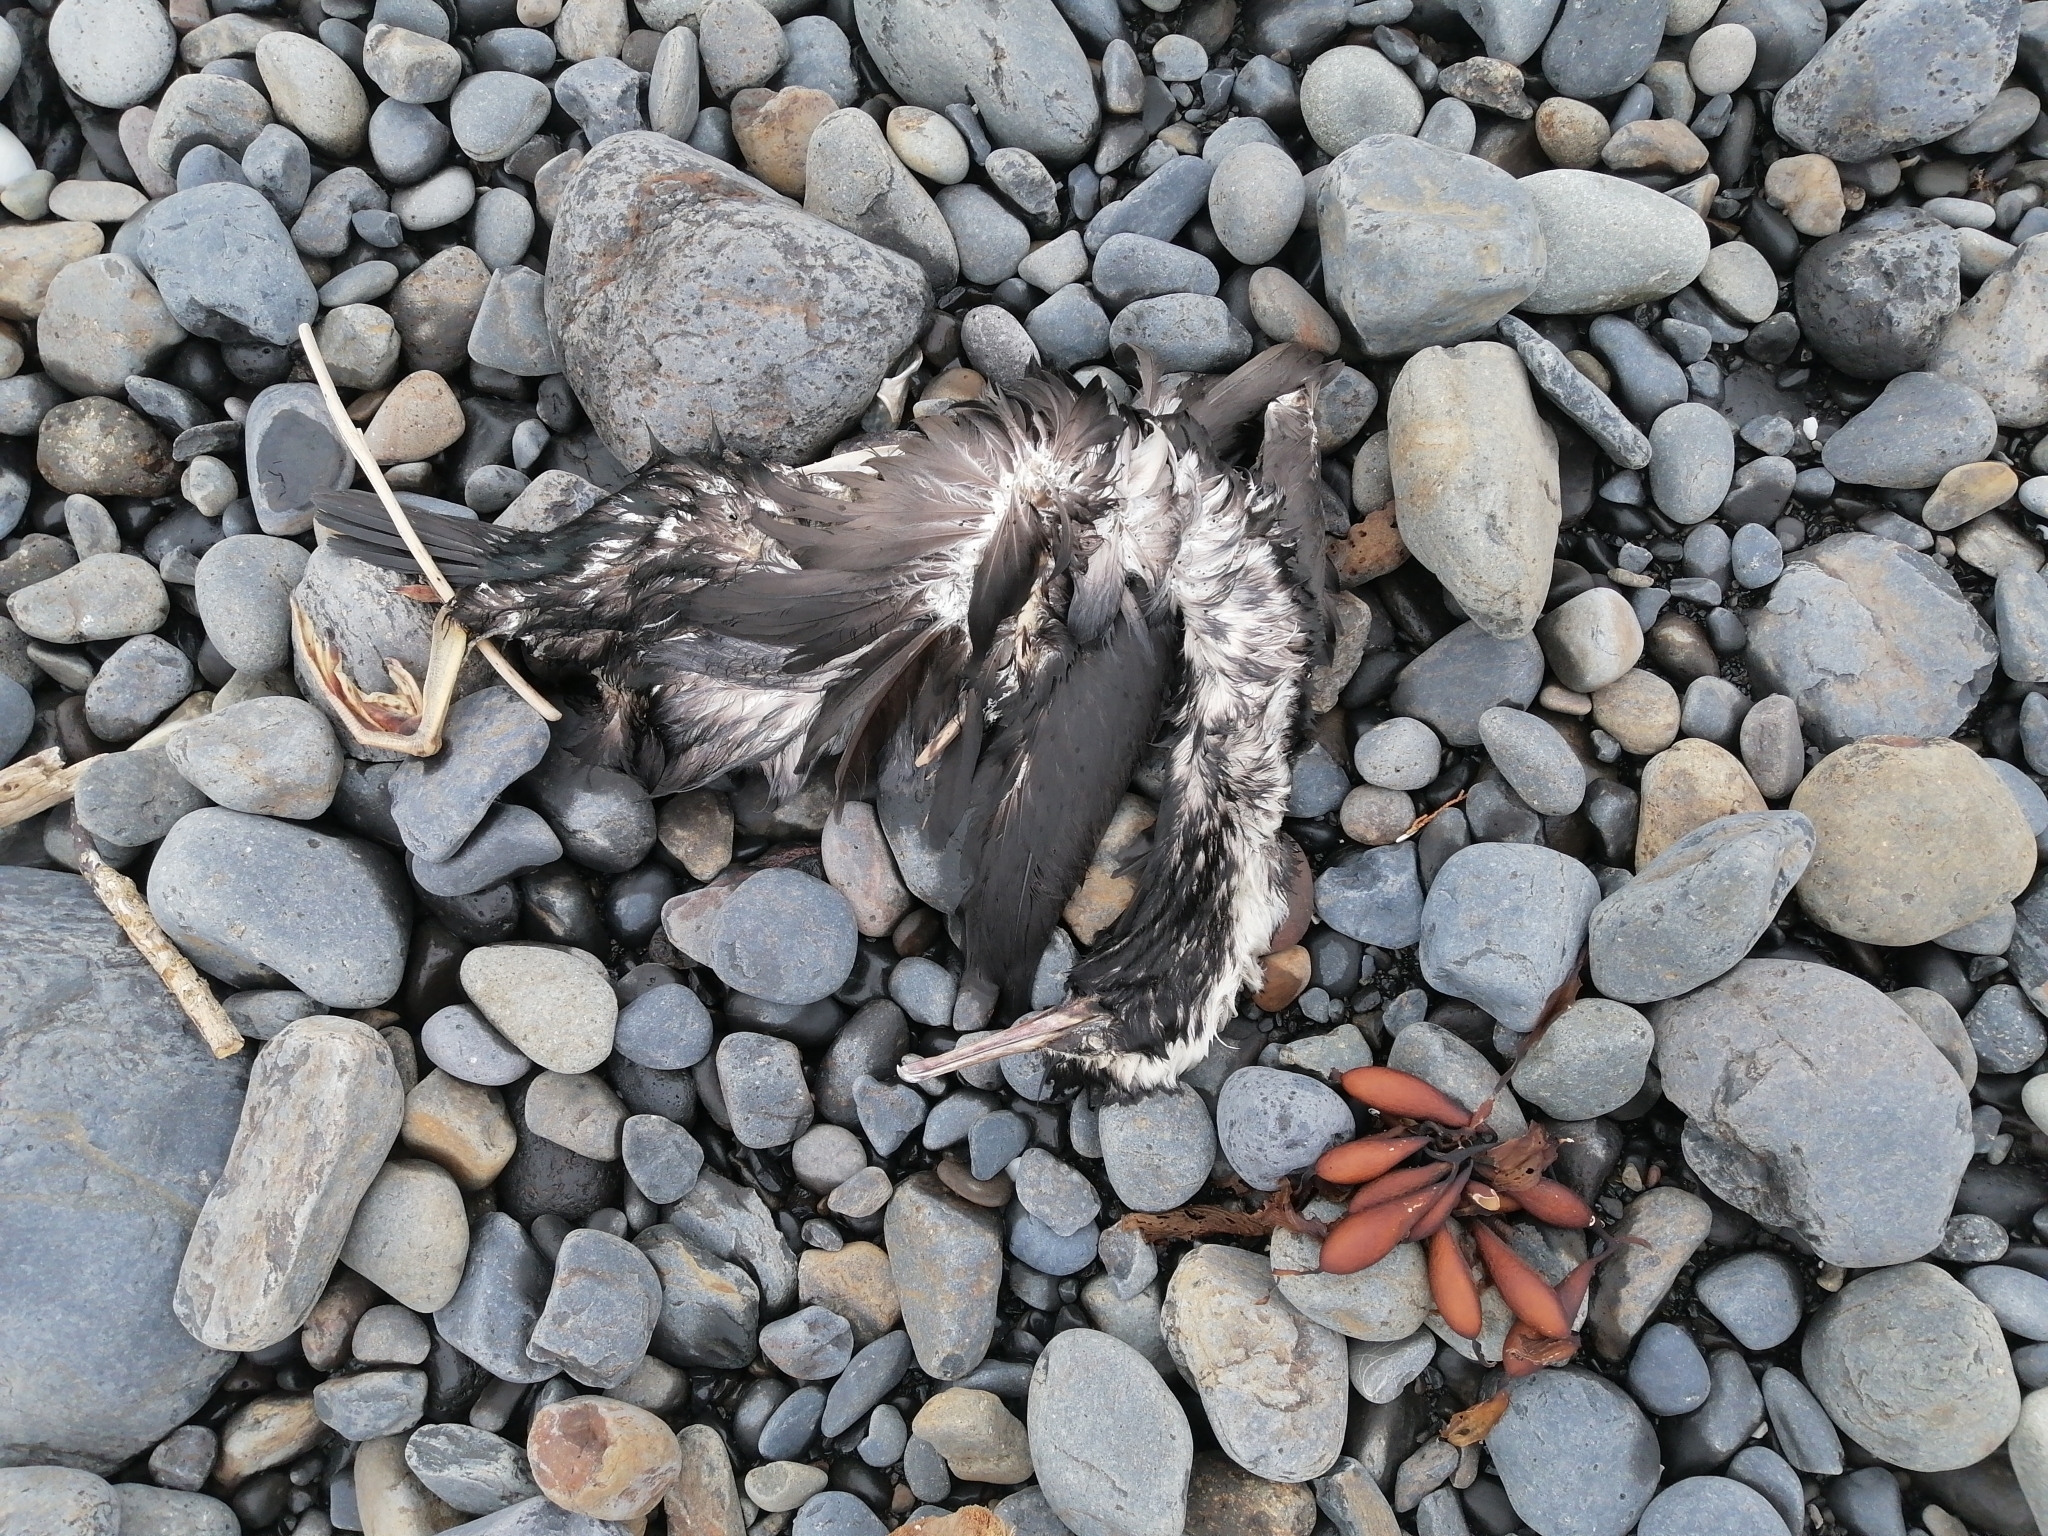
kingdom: Animalia
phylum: Chordata
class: Aves
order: Suliformes
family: Phalacrocoracidae
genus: Phalacrocorax
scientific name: Phalacrocorax punctatus
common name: Spotted shag
